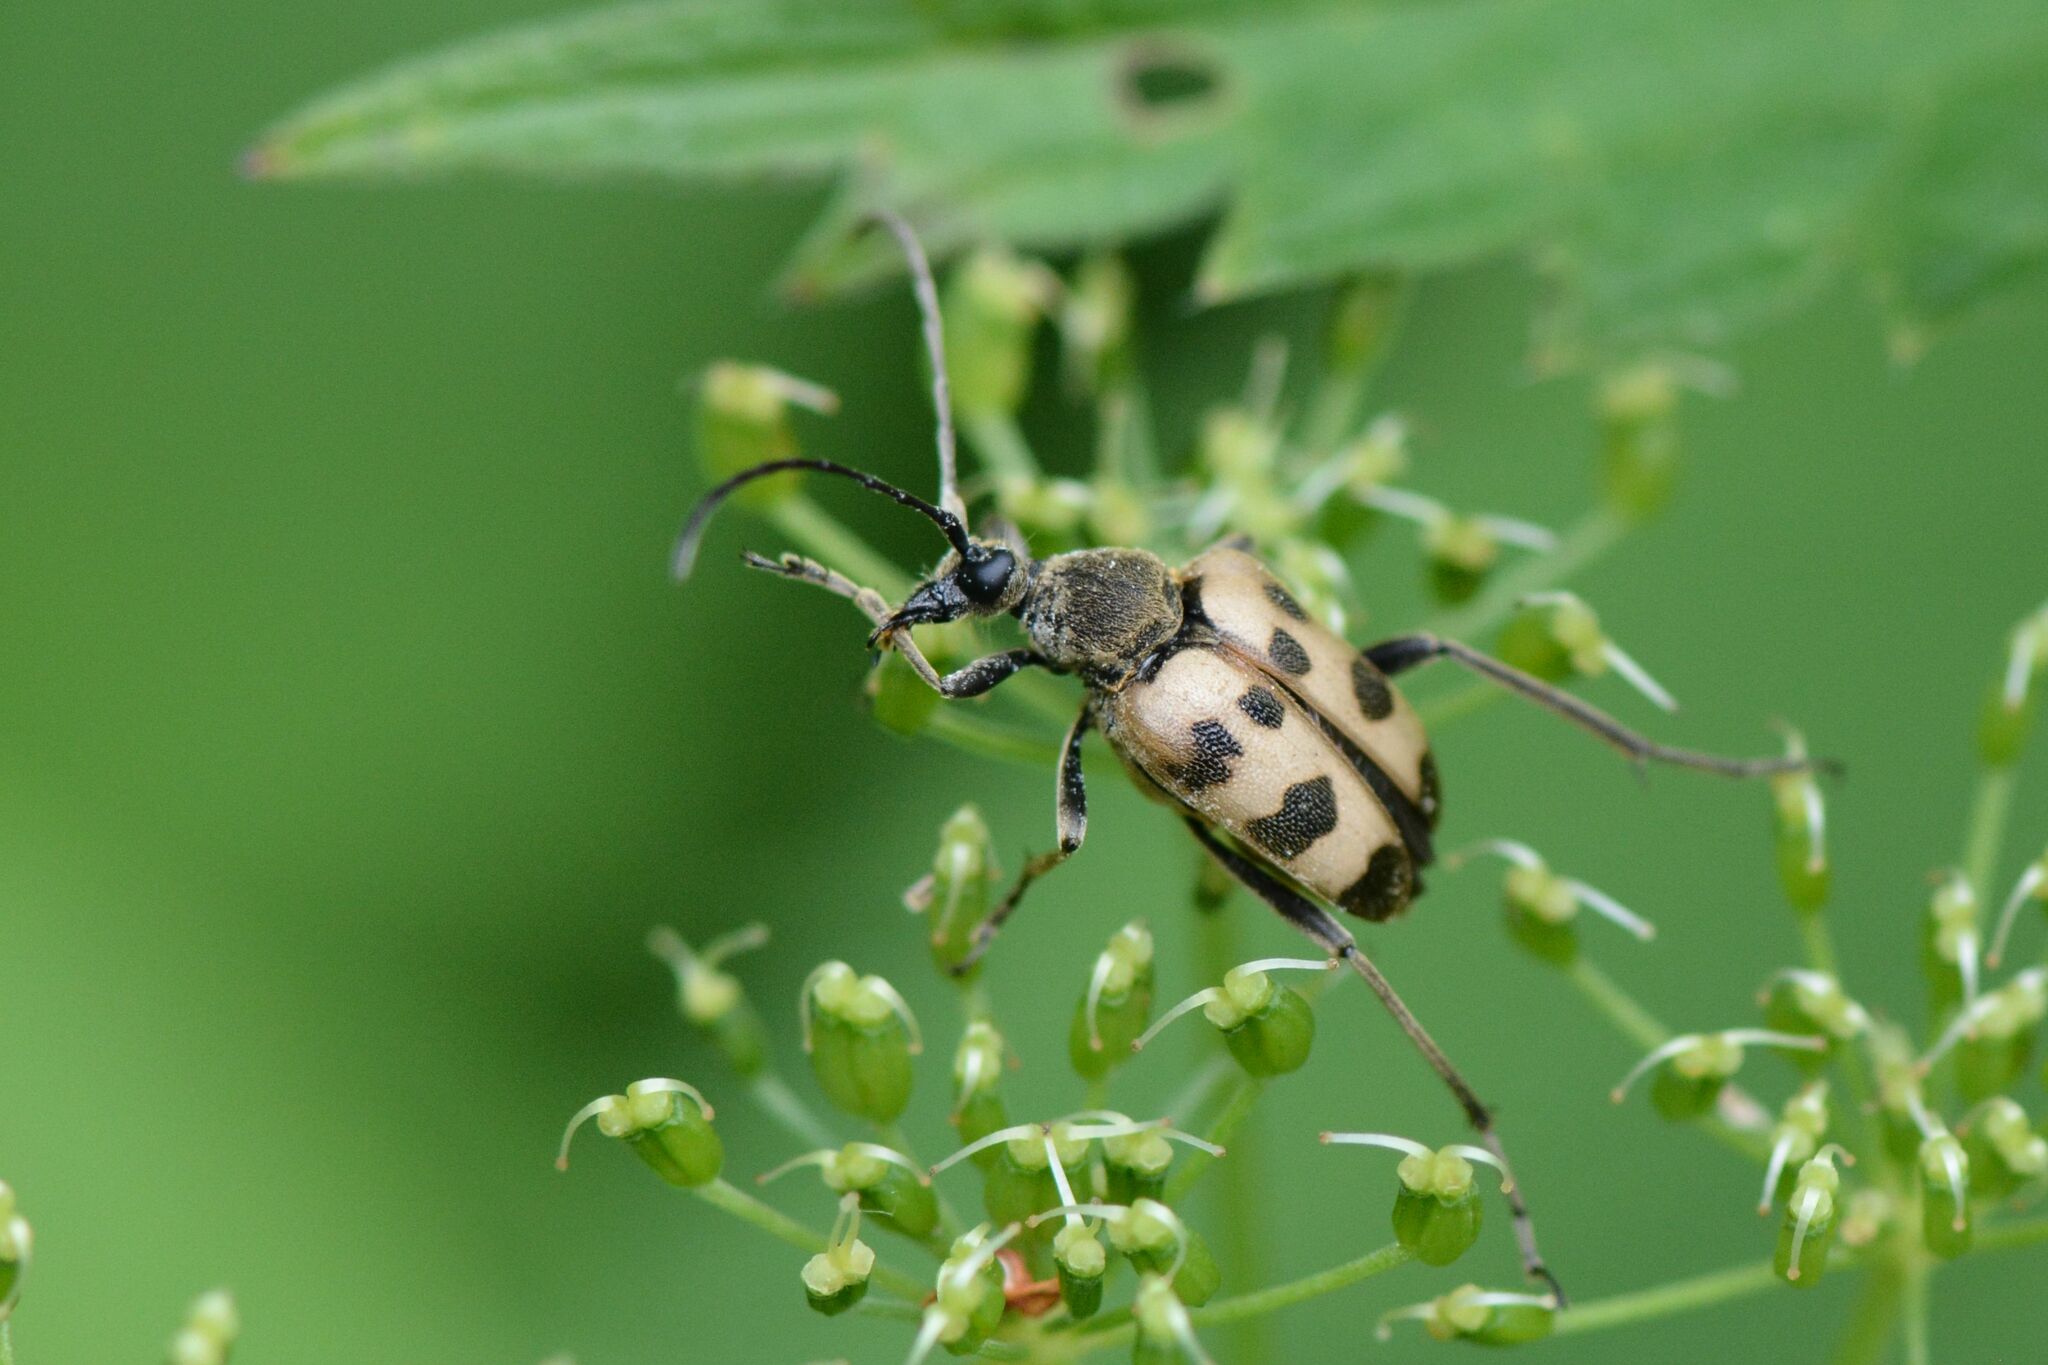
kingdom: Animalia
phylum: Arthropoda
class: Insecta
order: Coleoptera
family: Cerambycidae
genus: Pachytodes
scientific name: Pachytodes cerambyciformis
